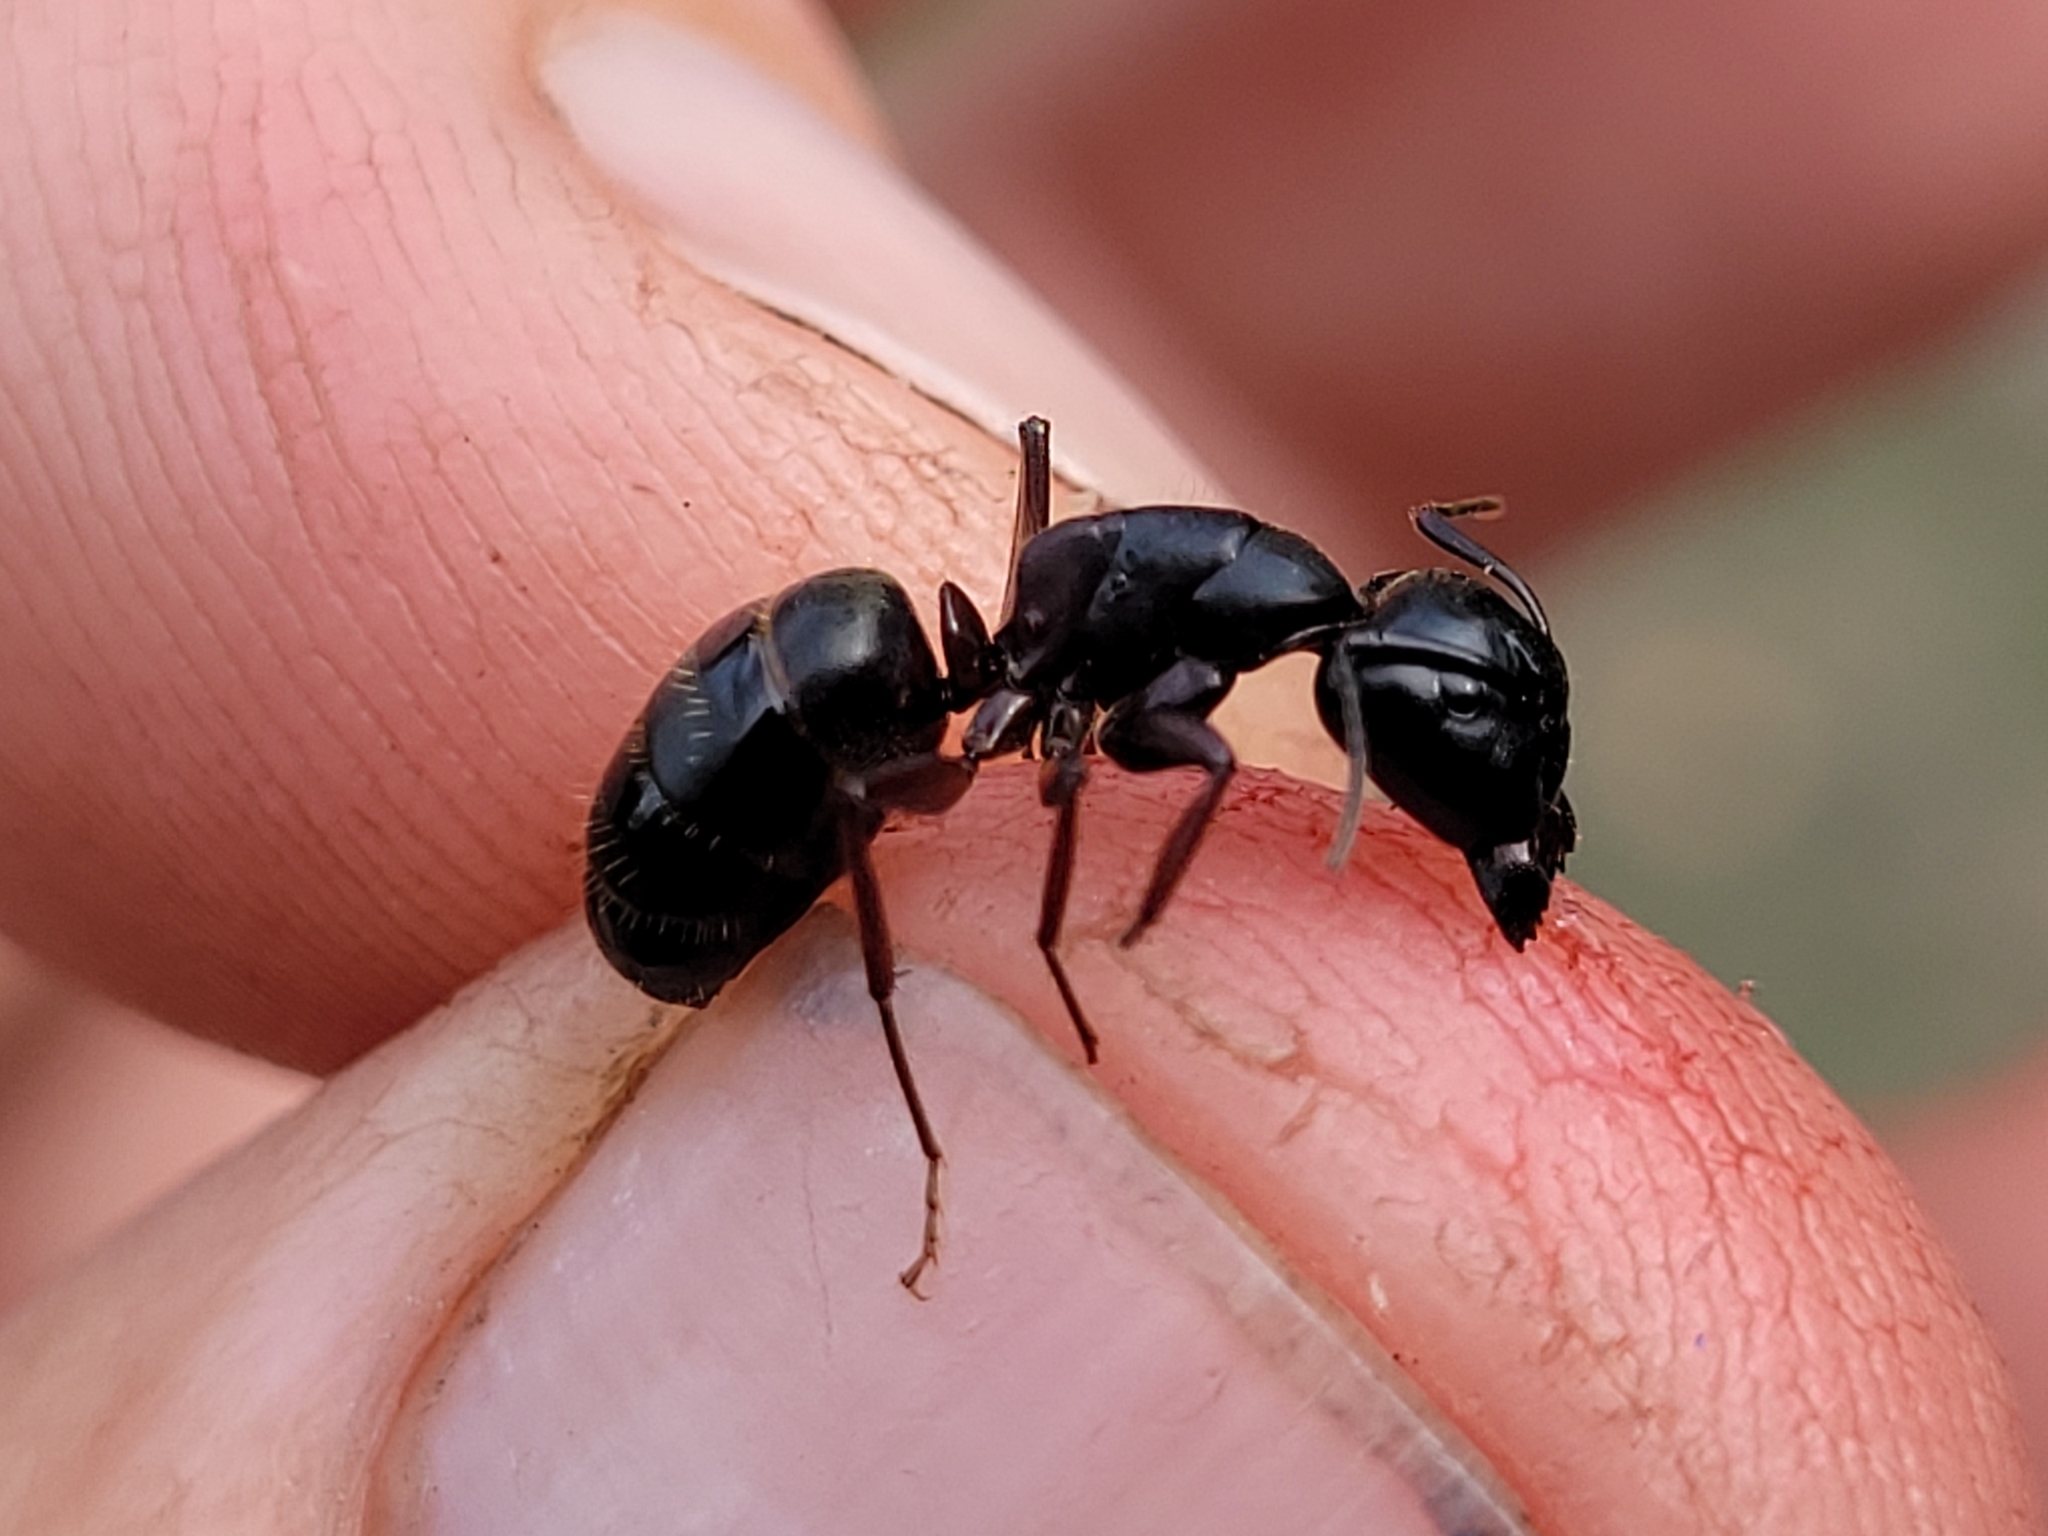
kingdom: Animalia
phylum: Arthropoda
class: Insecta
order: Hymenoptera
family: Formicidae
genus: Camponotus
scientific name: Camponotus herculeanus
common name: Hercules ant
